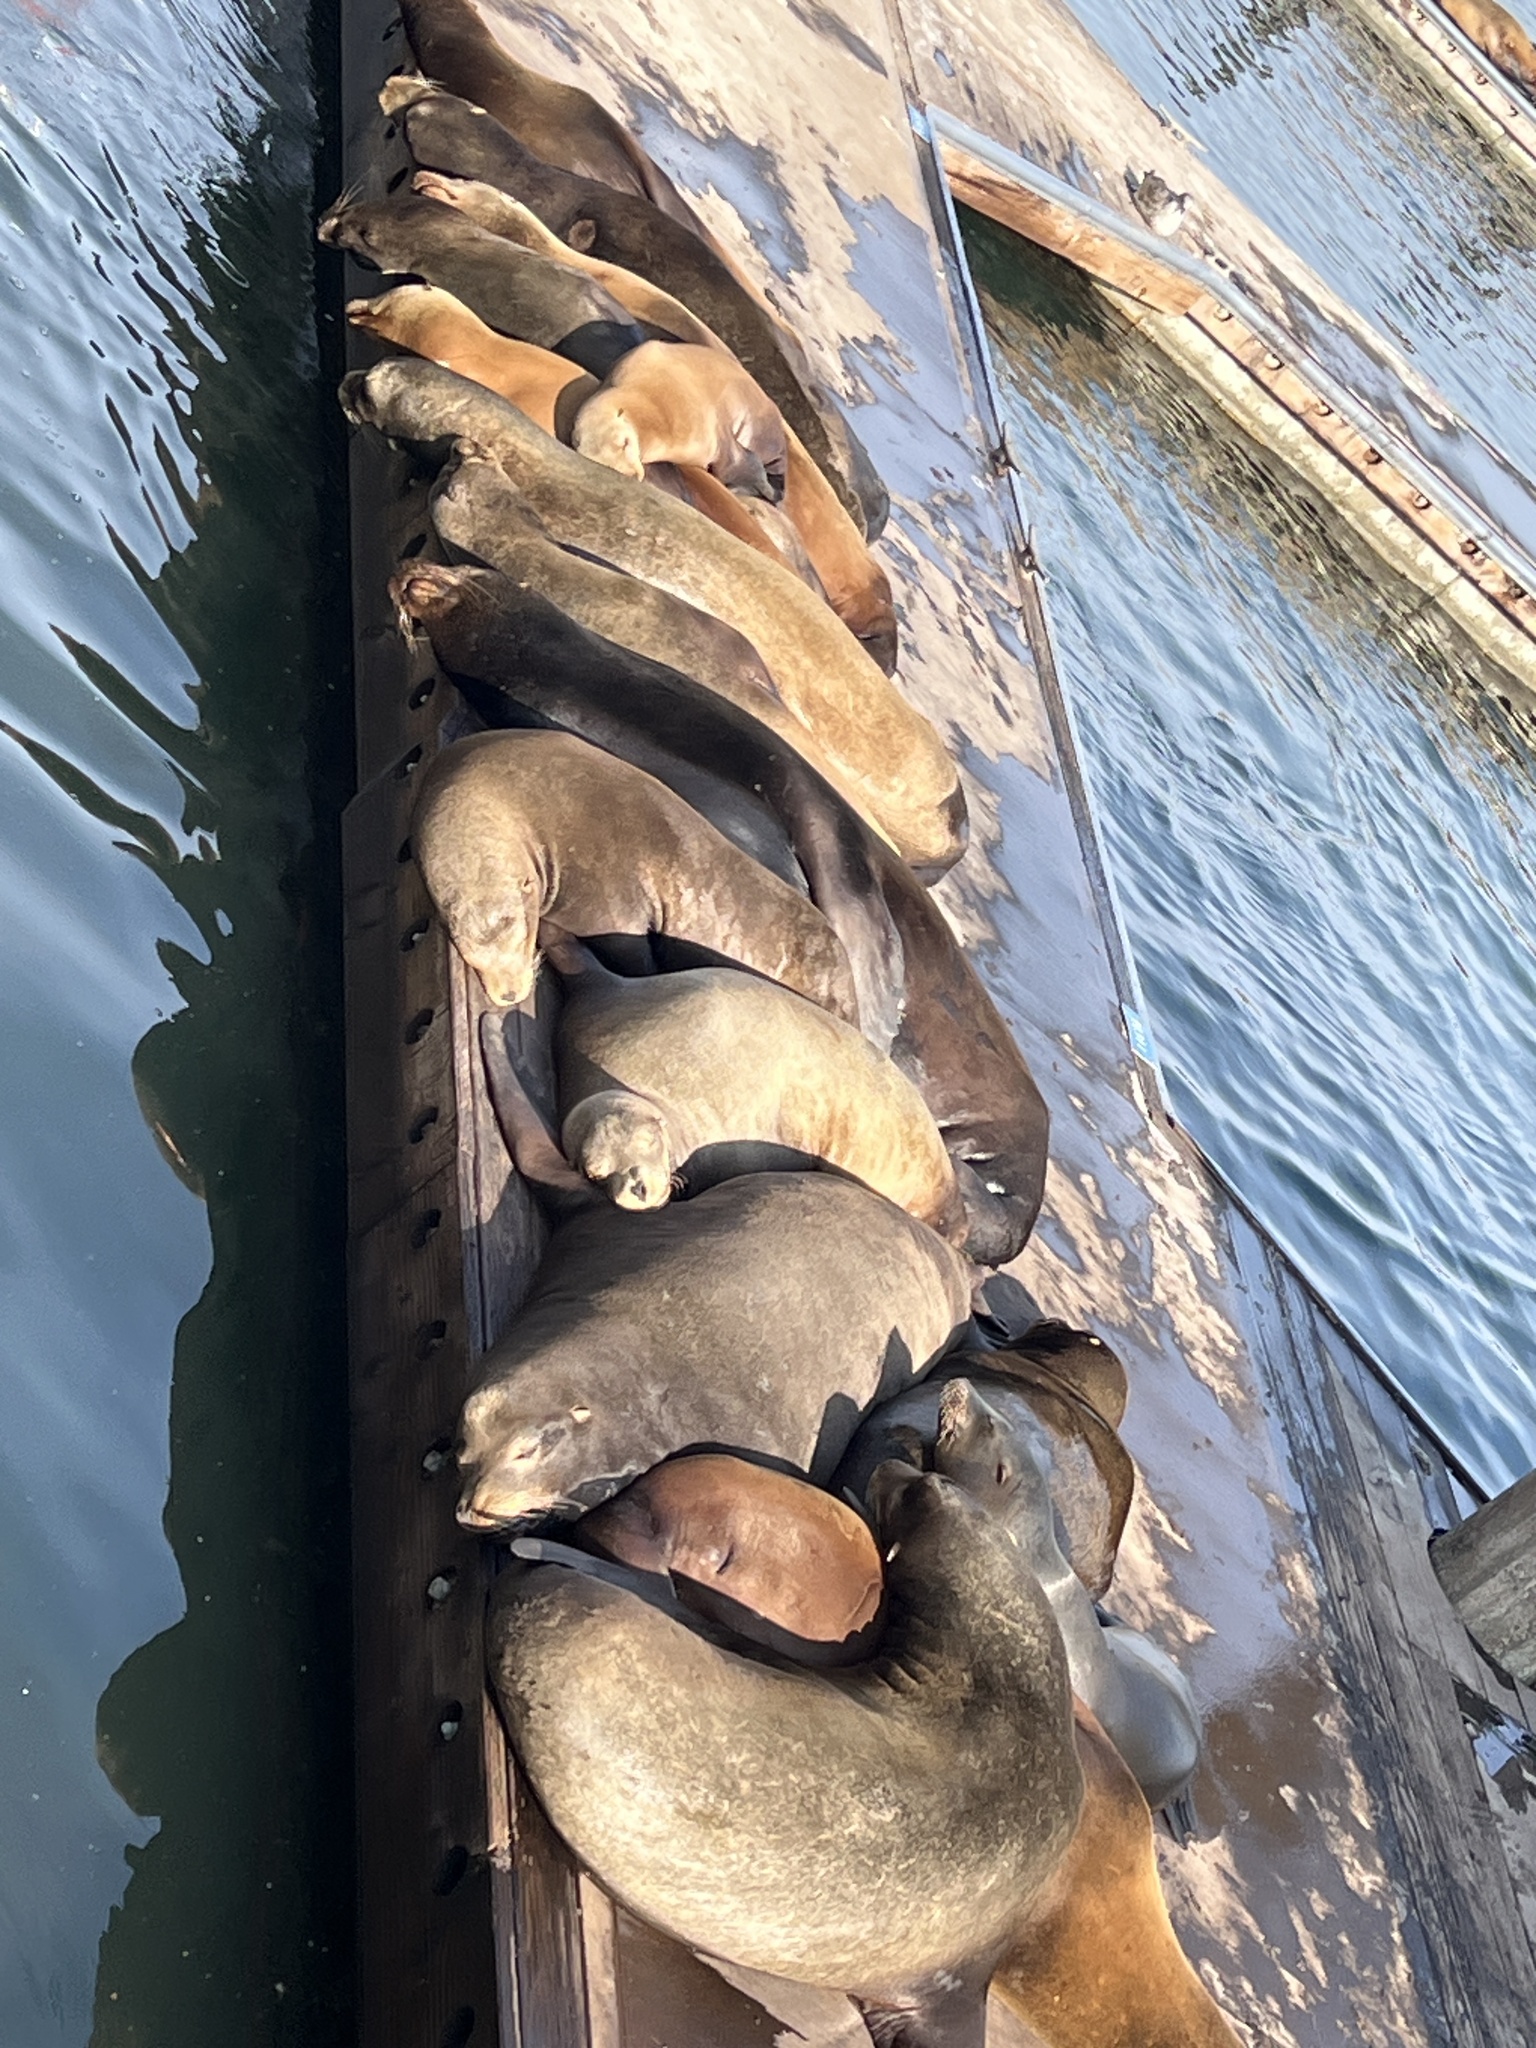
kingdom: Animalia
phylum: Chordata
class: Mammalia
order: Carnivora
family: Otariidae
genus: Zalophus
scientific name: Zalophus californianus
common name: California sea lion
